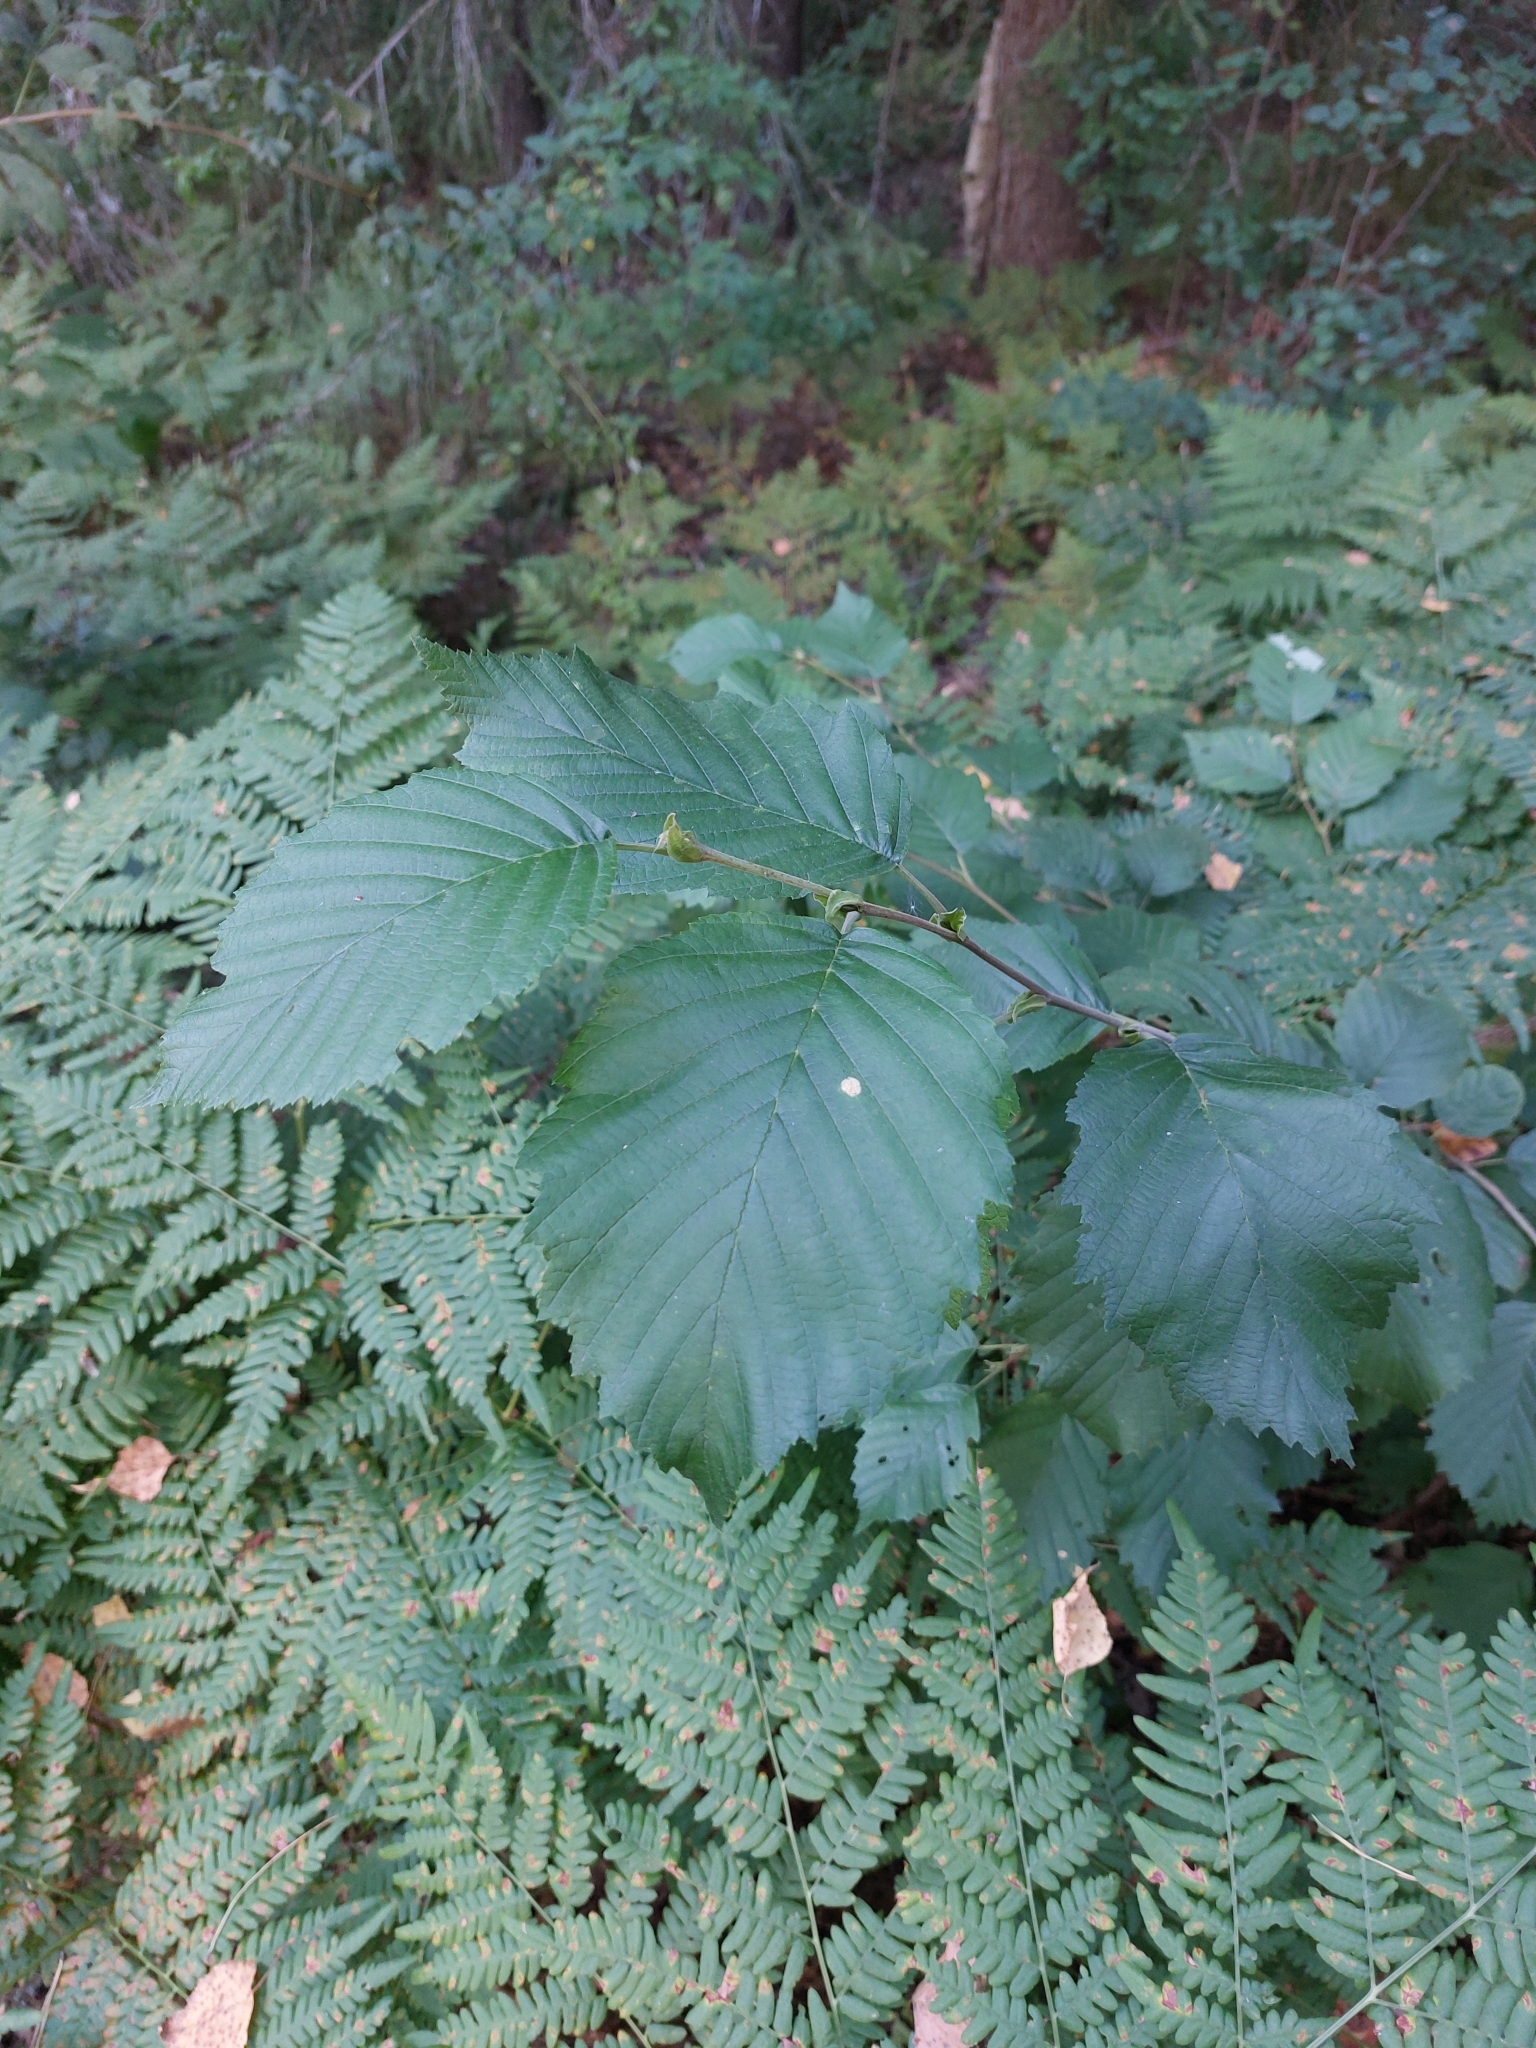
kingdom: Plantae
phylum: Tracheophyta
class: Magnoliopsida
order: Fagales
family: Betulaceae
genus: Corylus
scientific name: Corylus avellana
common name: European hazel
